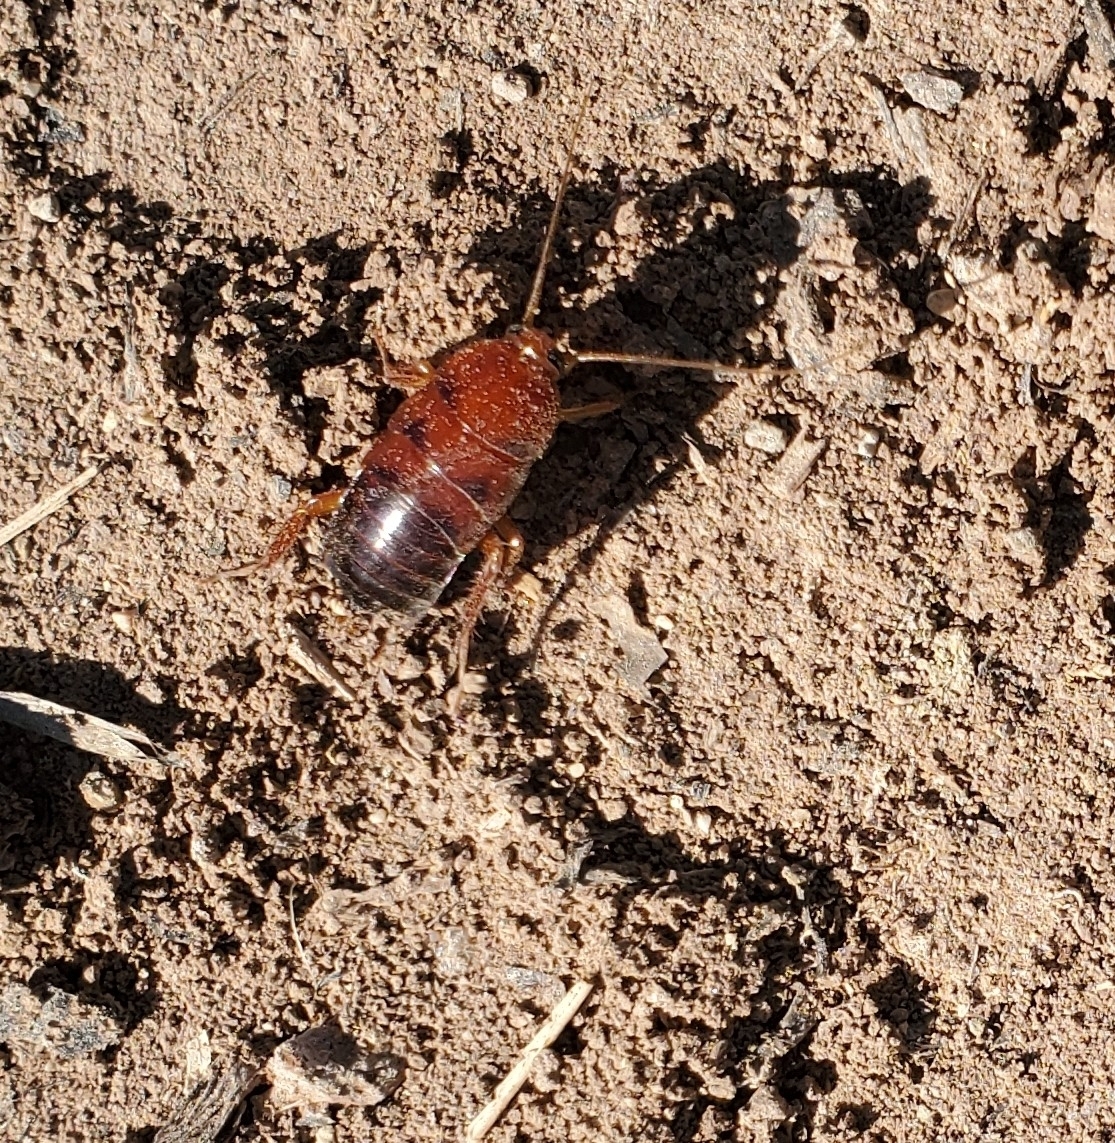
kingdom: Animalia
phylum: Arthropoda
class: Insecta
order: Blattodea
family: Blattidae
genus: Periplaneta
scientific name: Periplaneta lateralis
